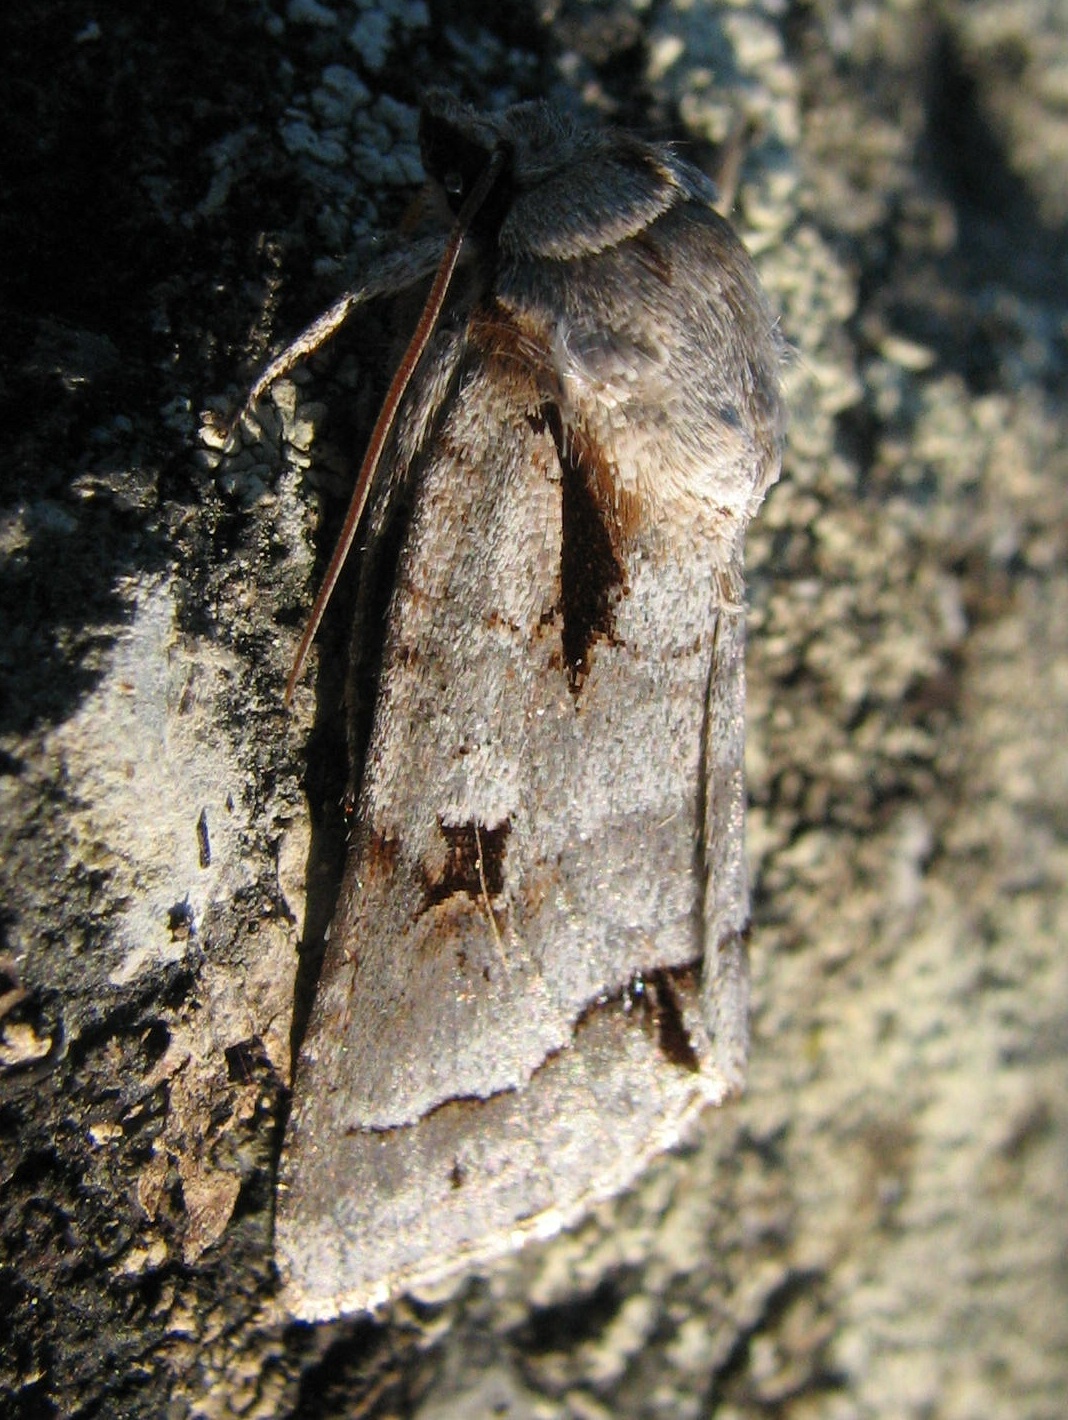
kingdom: Animalia
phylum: Arthropoda
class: Insecta
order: Lepidoptera
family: Noctuidae
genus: Acronicta
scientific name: Acronicta quadrata
